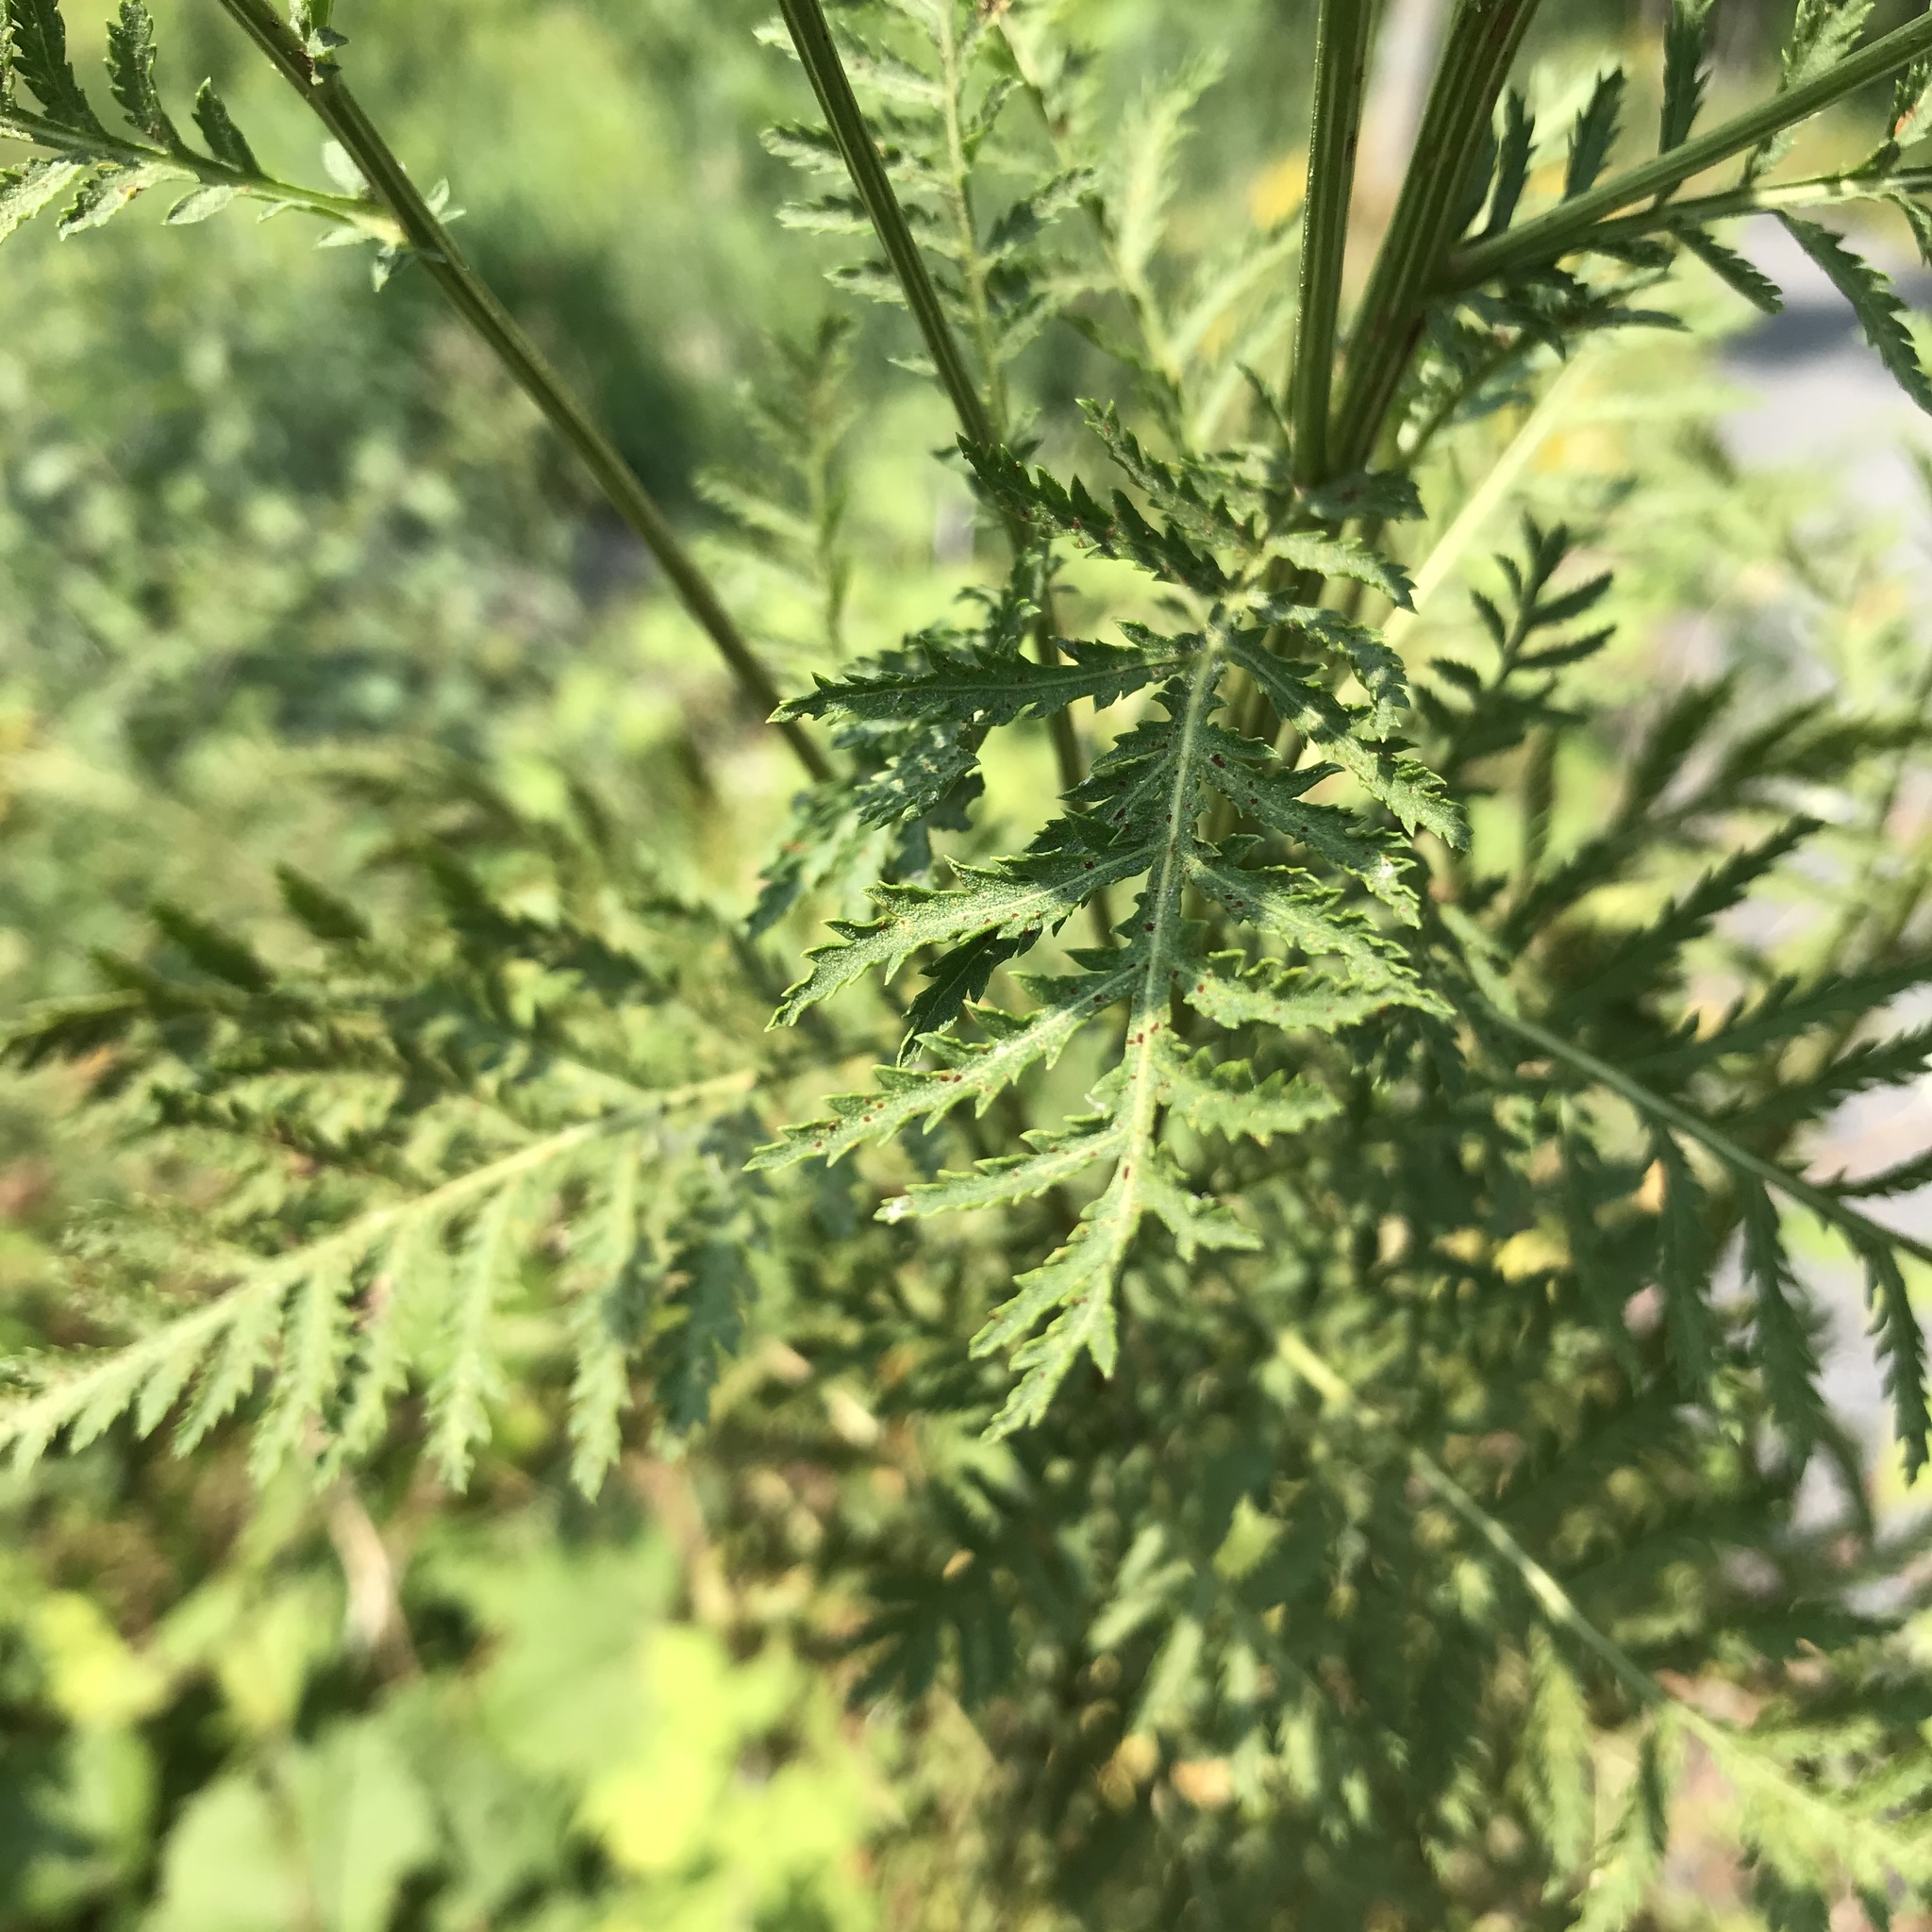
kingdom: Plantae
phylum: Tracheophyta
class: Magnoliopsida
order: Asterales
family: Asteraceae
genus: Tanacetum
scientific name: Tanacetum vulgare
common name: Common tansy
